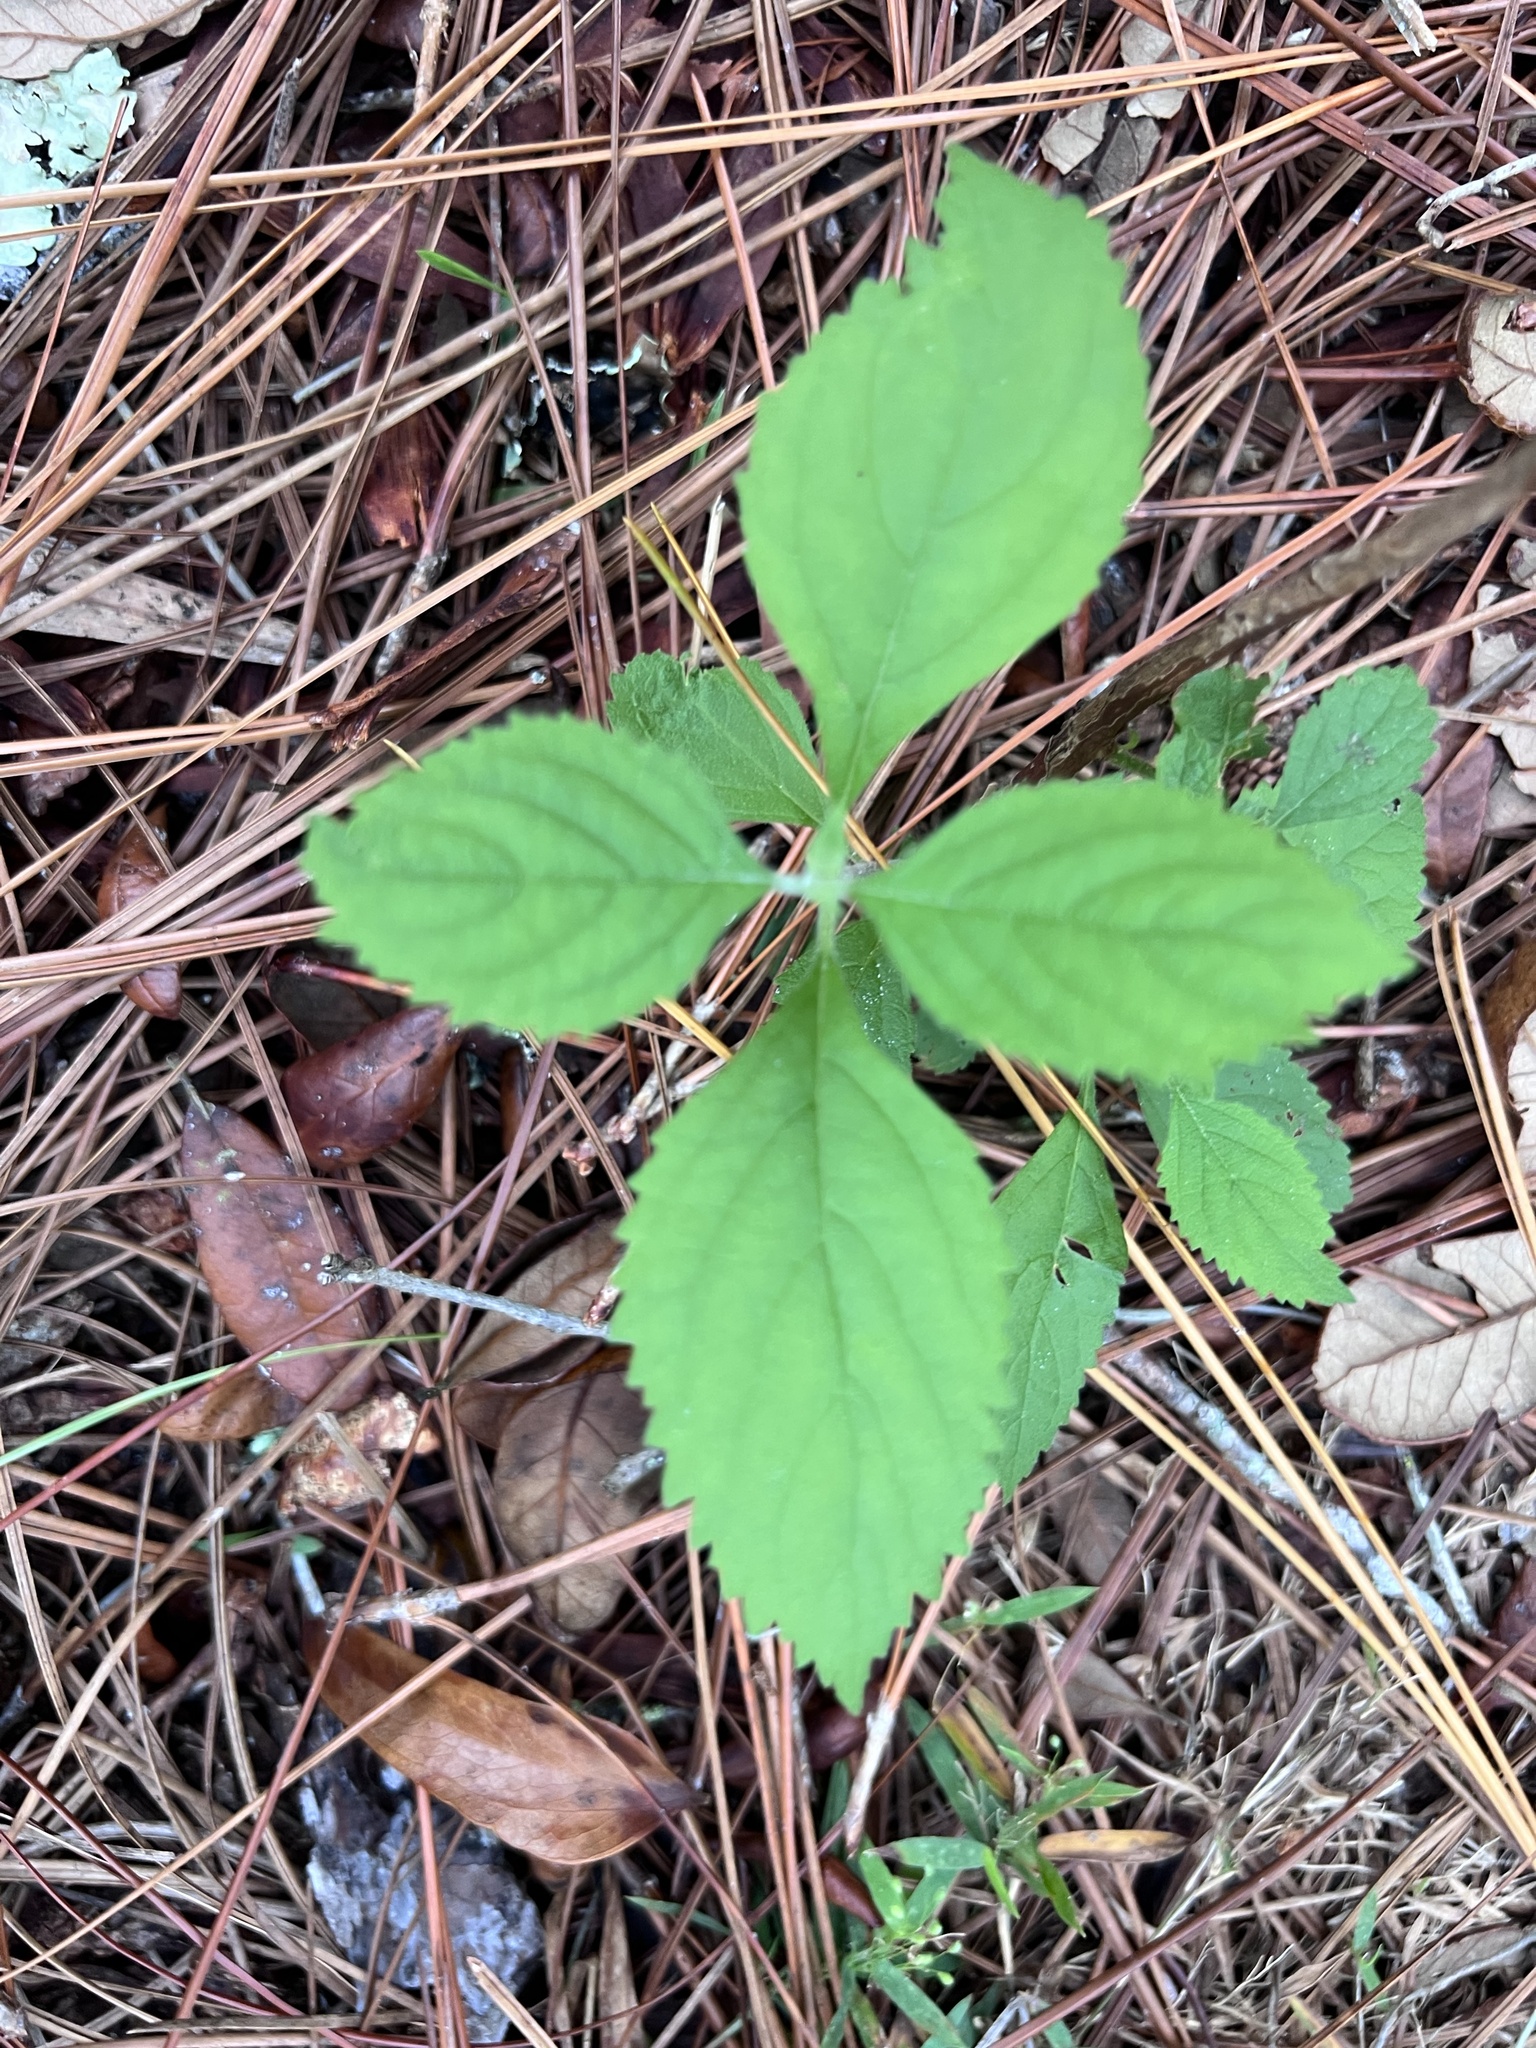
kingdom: Plantae
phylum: Tracheophyta
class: Magnoliopsida
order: Lamiales
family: Lamiaceae
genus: Callicarpa
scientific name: Callicarpa americana
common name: American beautyberry
